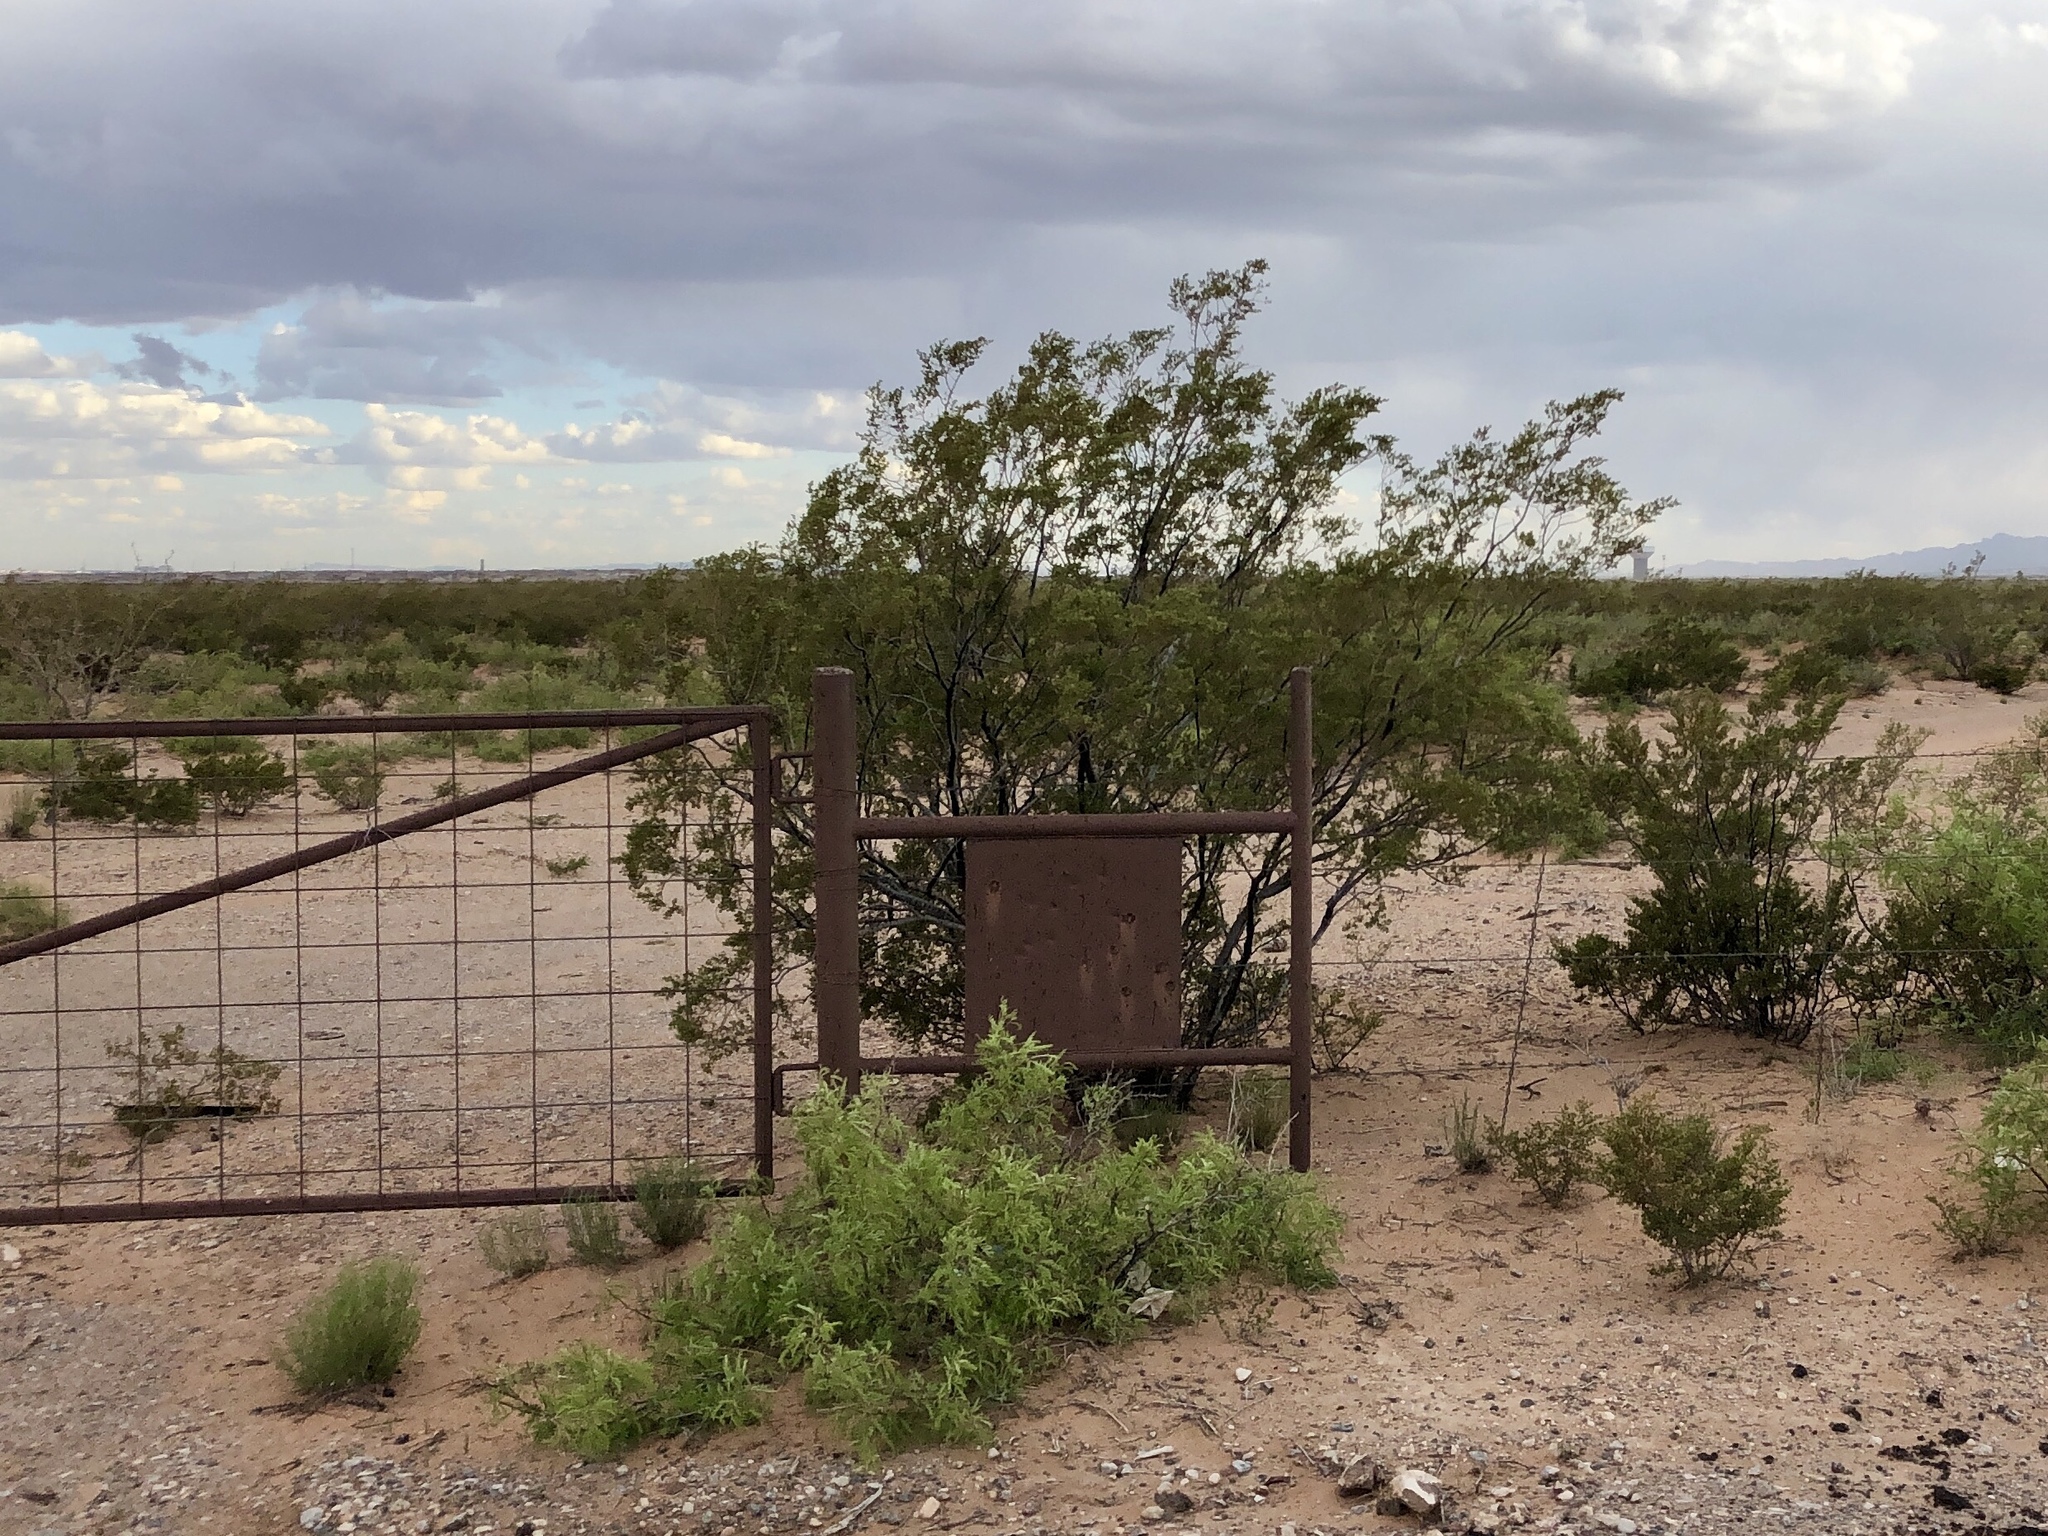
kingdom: Plantae
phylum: Tracheophyta
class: Magnoliopsida
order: Zygophyllales
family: Zygophyllaceae
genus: Larrea
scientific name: Larrea tridentata
